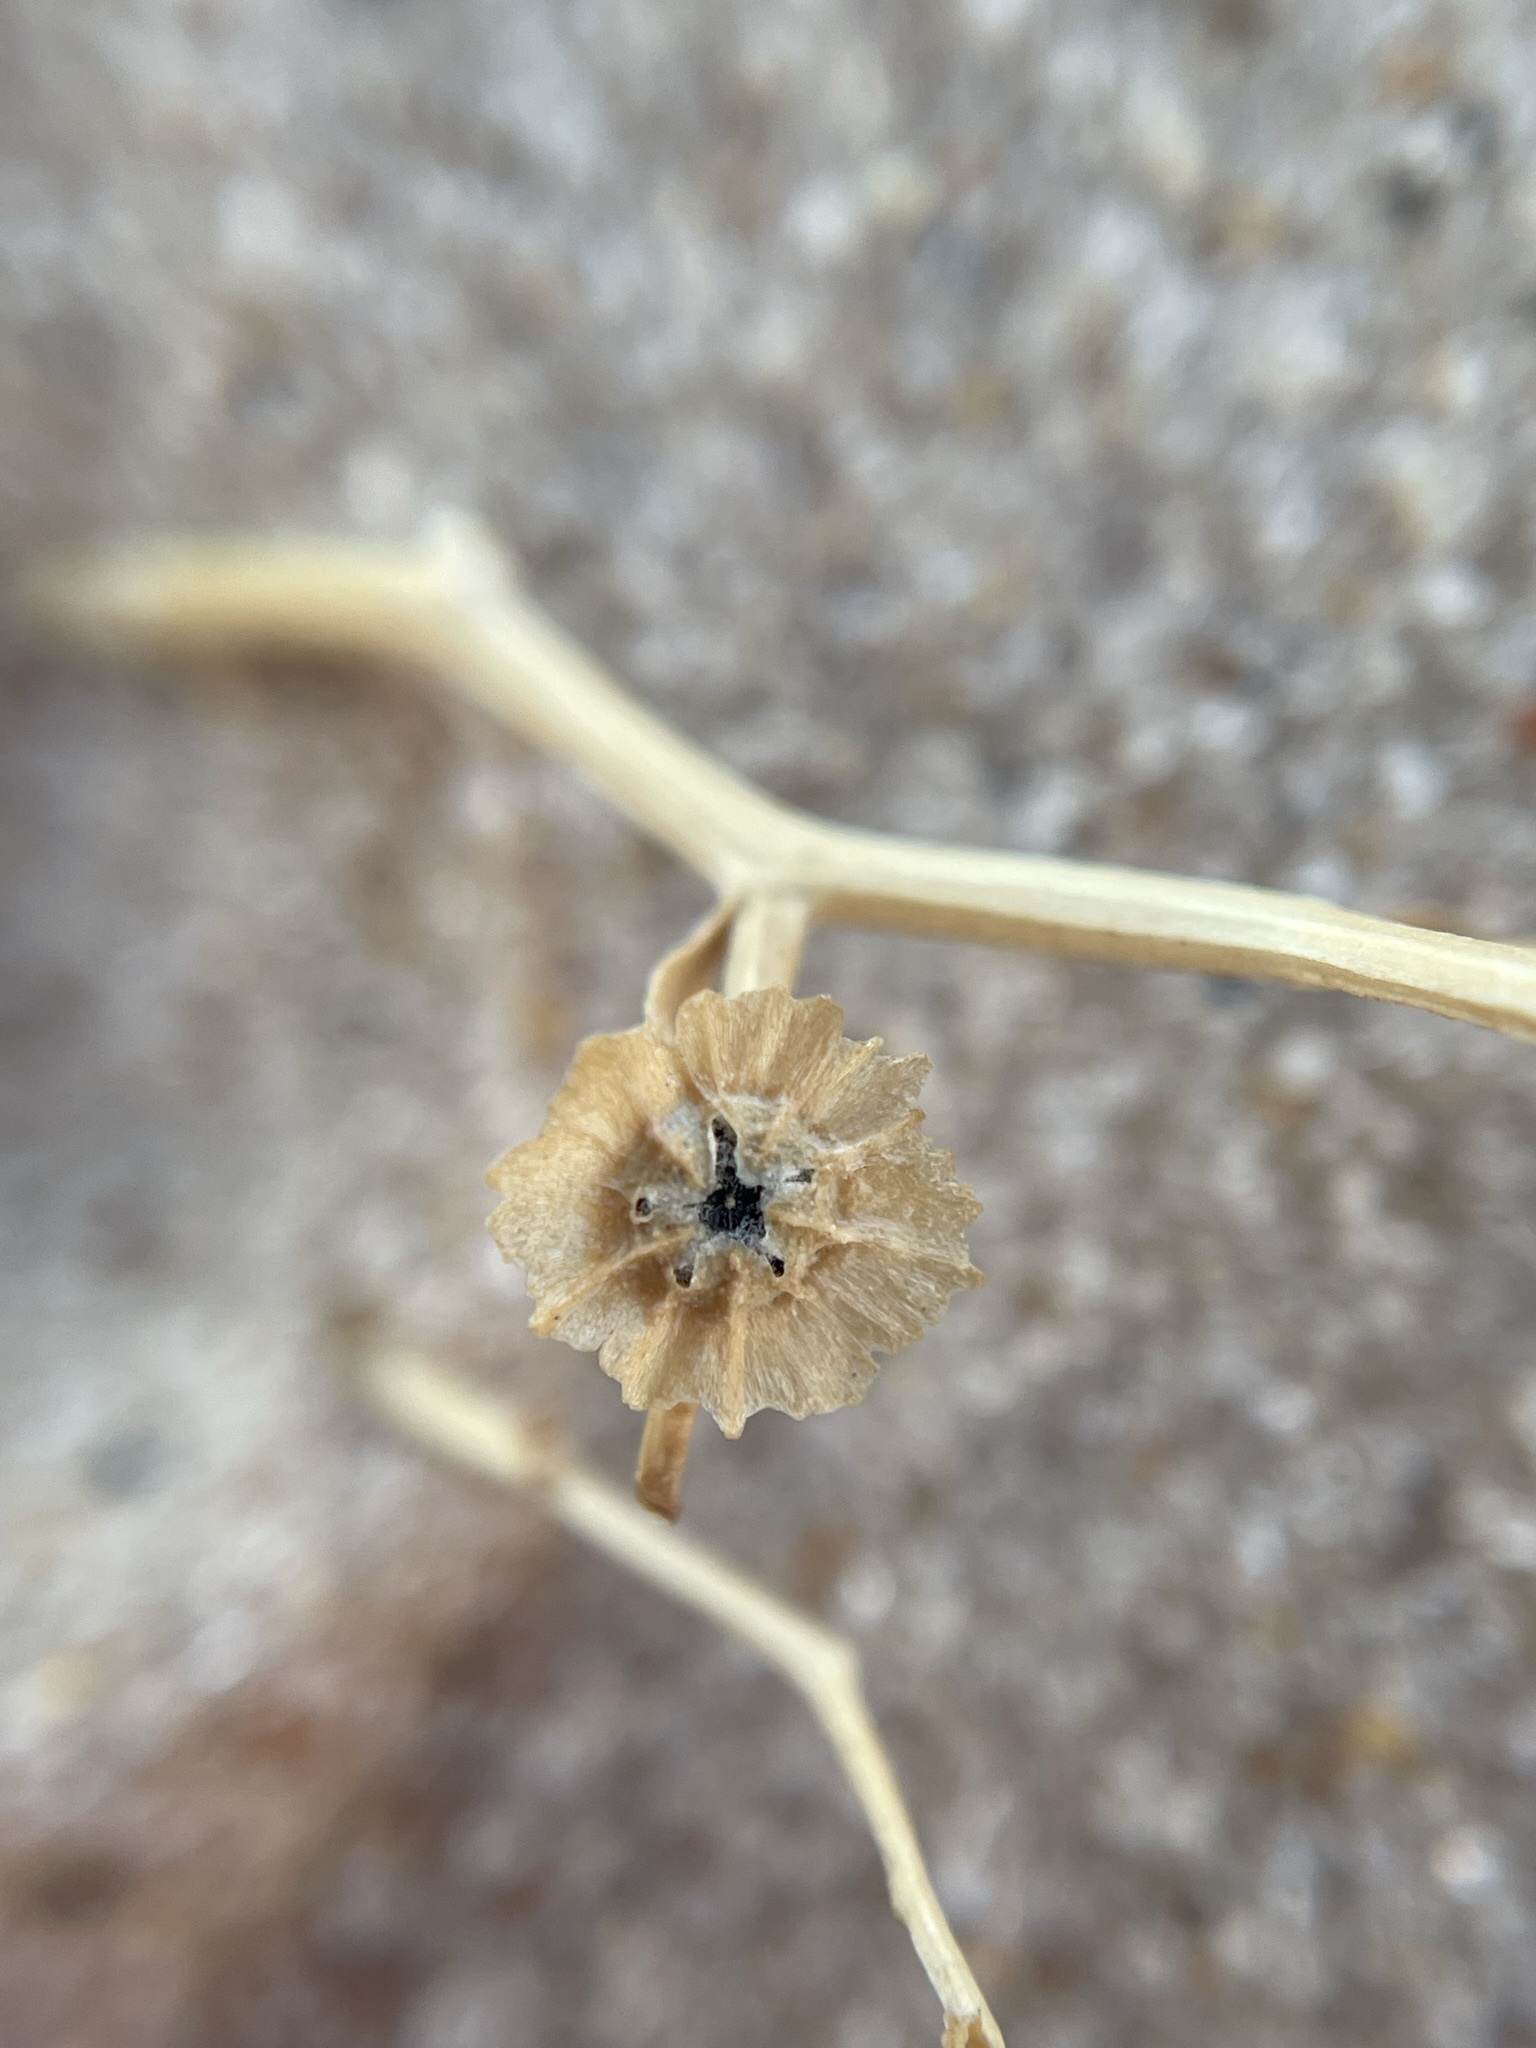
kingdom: Plantae
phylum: Tracheophyta
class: Magnoliopsida
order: Caryophyllales
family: Amaranthaceae
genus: Dysphania
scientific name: Dysphania atriplicifolia
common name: Plains tumbleweed
